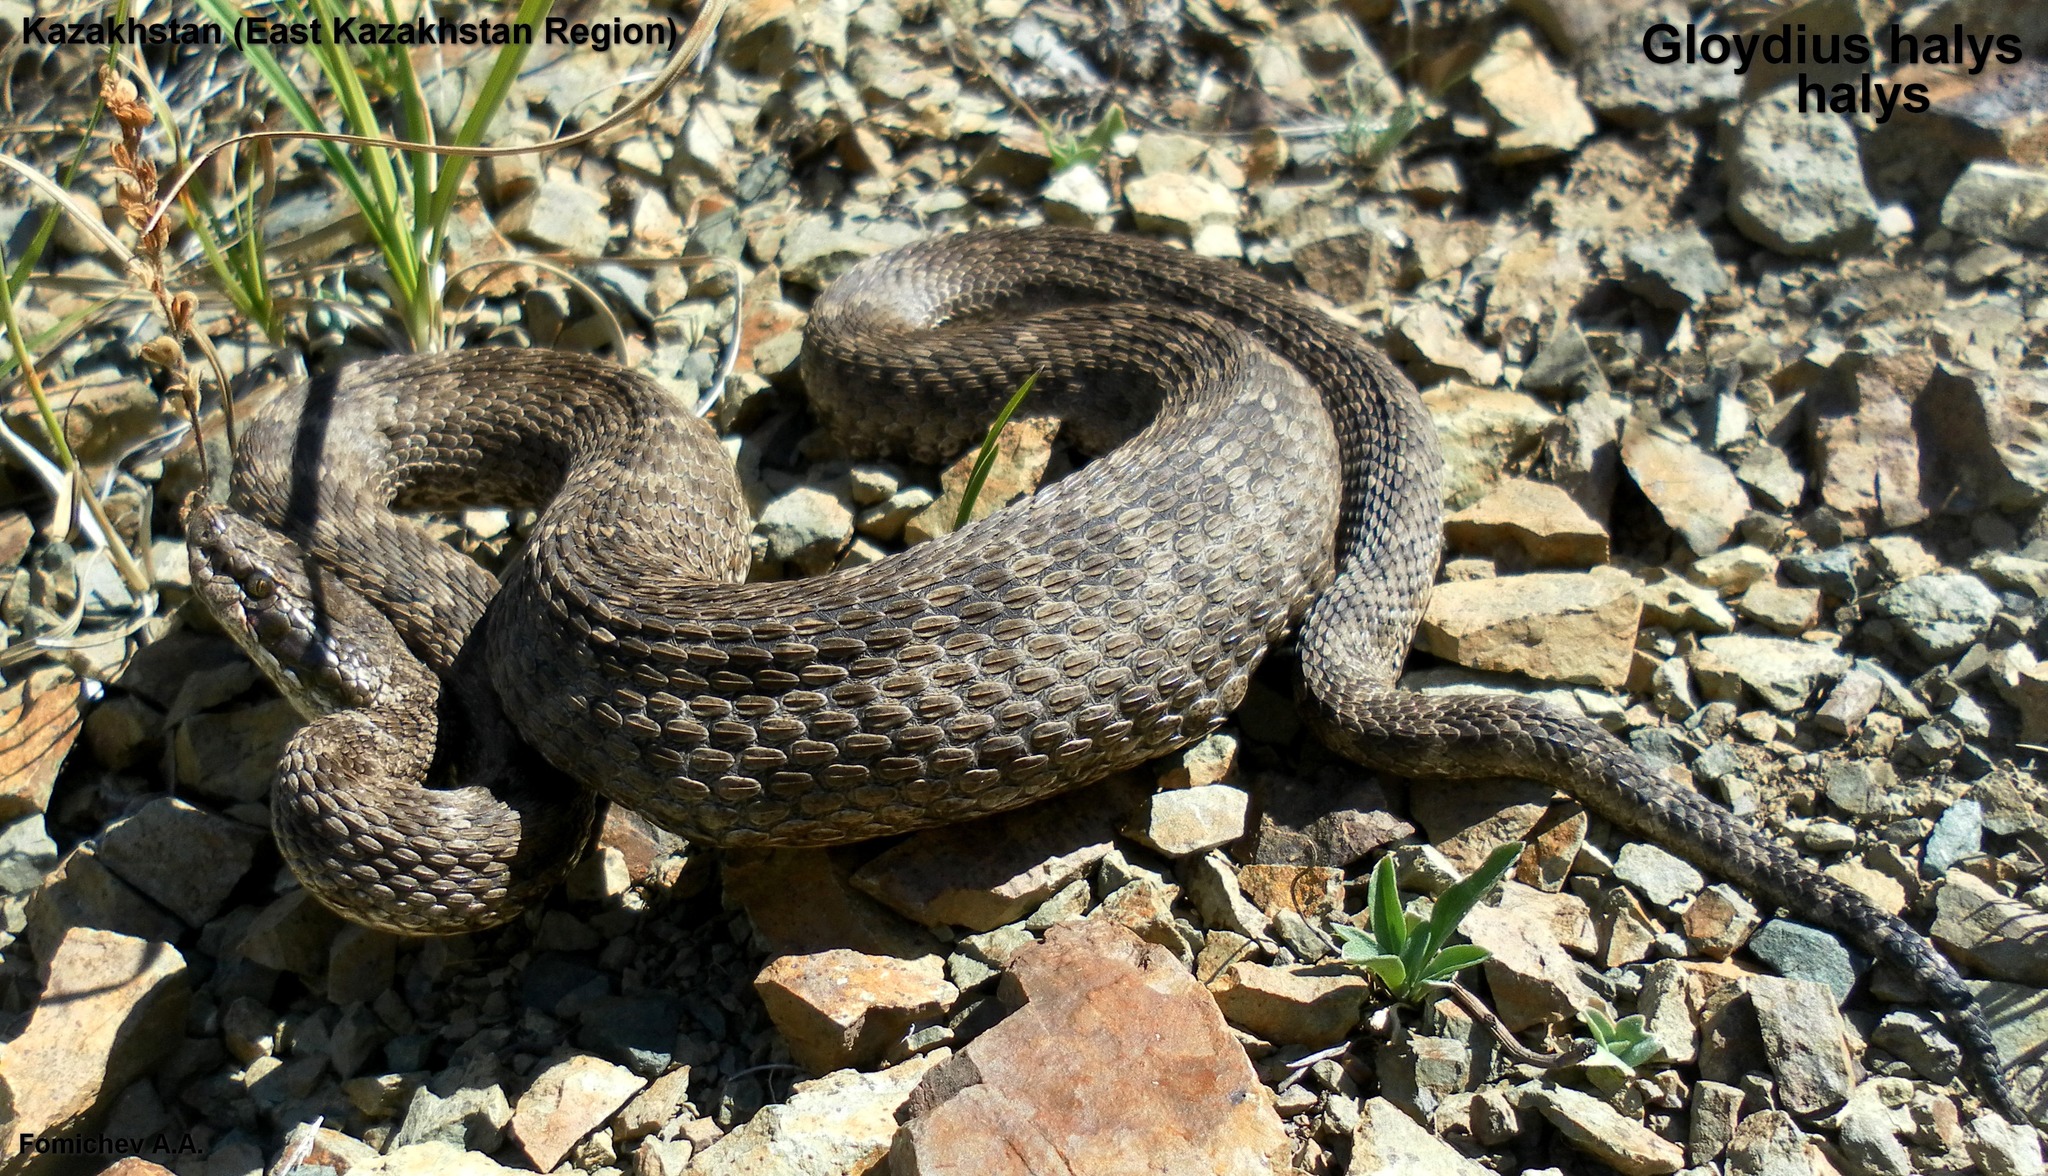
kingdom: Animalia
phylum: Chordata
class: Squamata
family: Viperidae
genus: Gloydius
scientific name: Gloydius halys
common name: Halys pit viper
